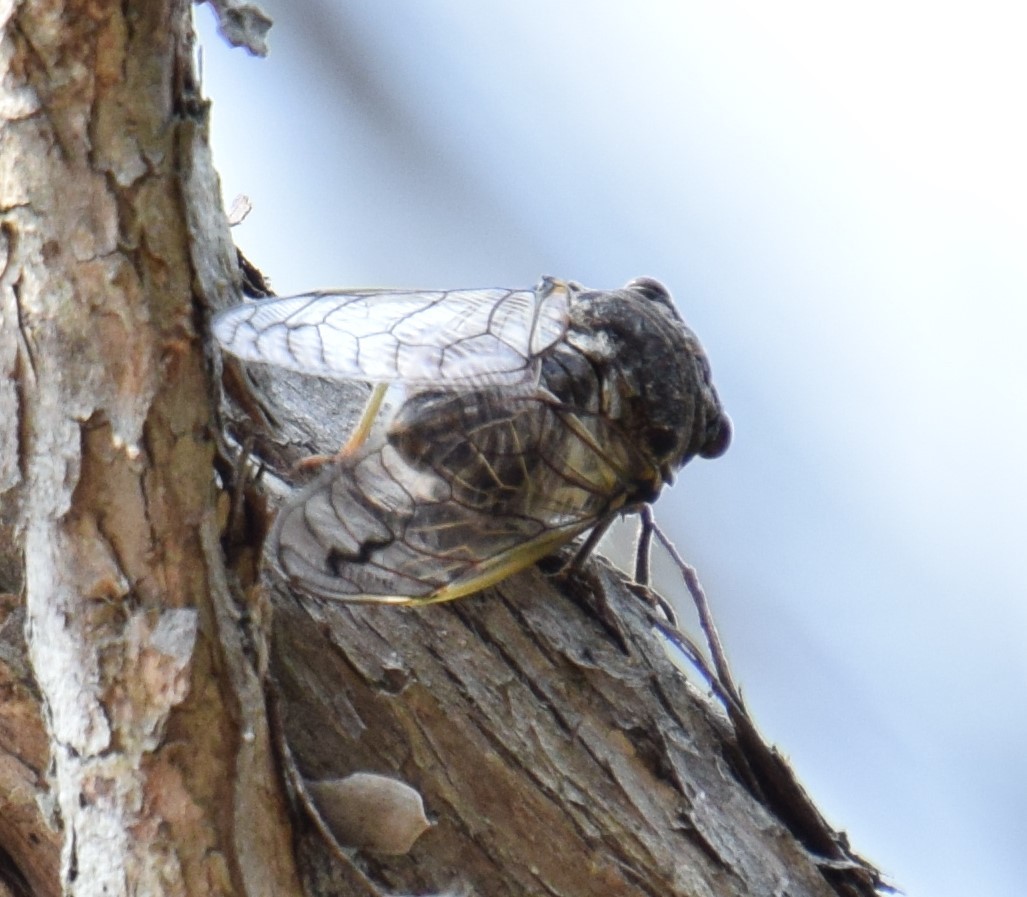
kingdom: Animalia
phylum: Arthropoda
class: Insecta
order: Hemiptera
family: Cicadidae
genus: Arunta
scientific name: Arunta perulata
